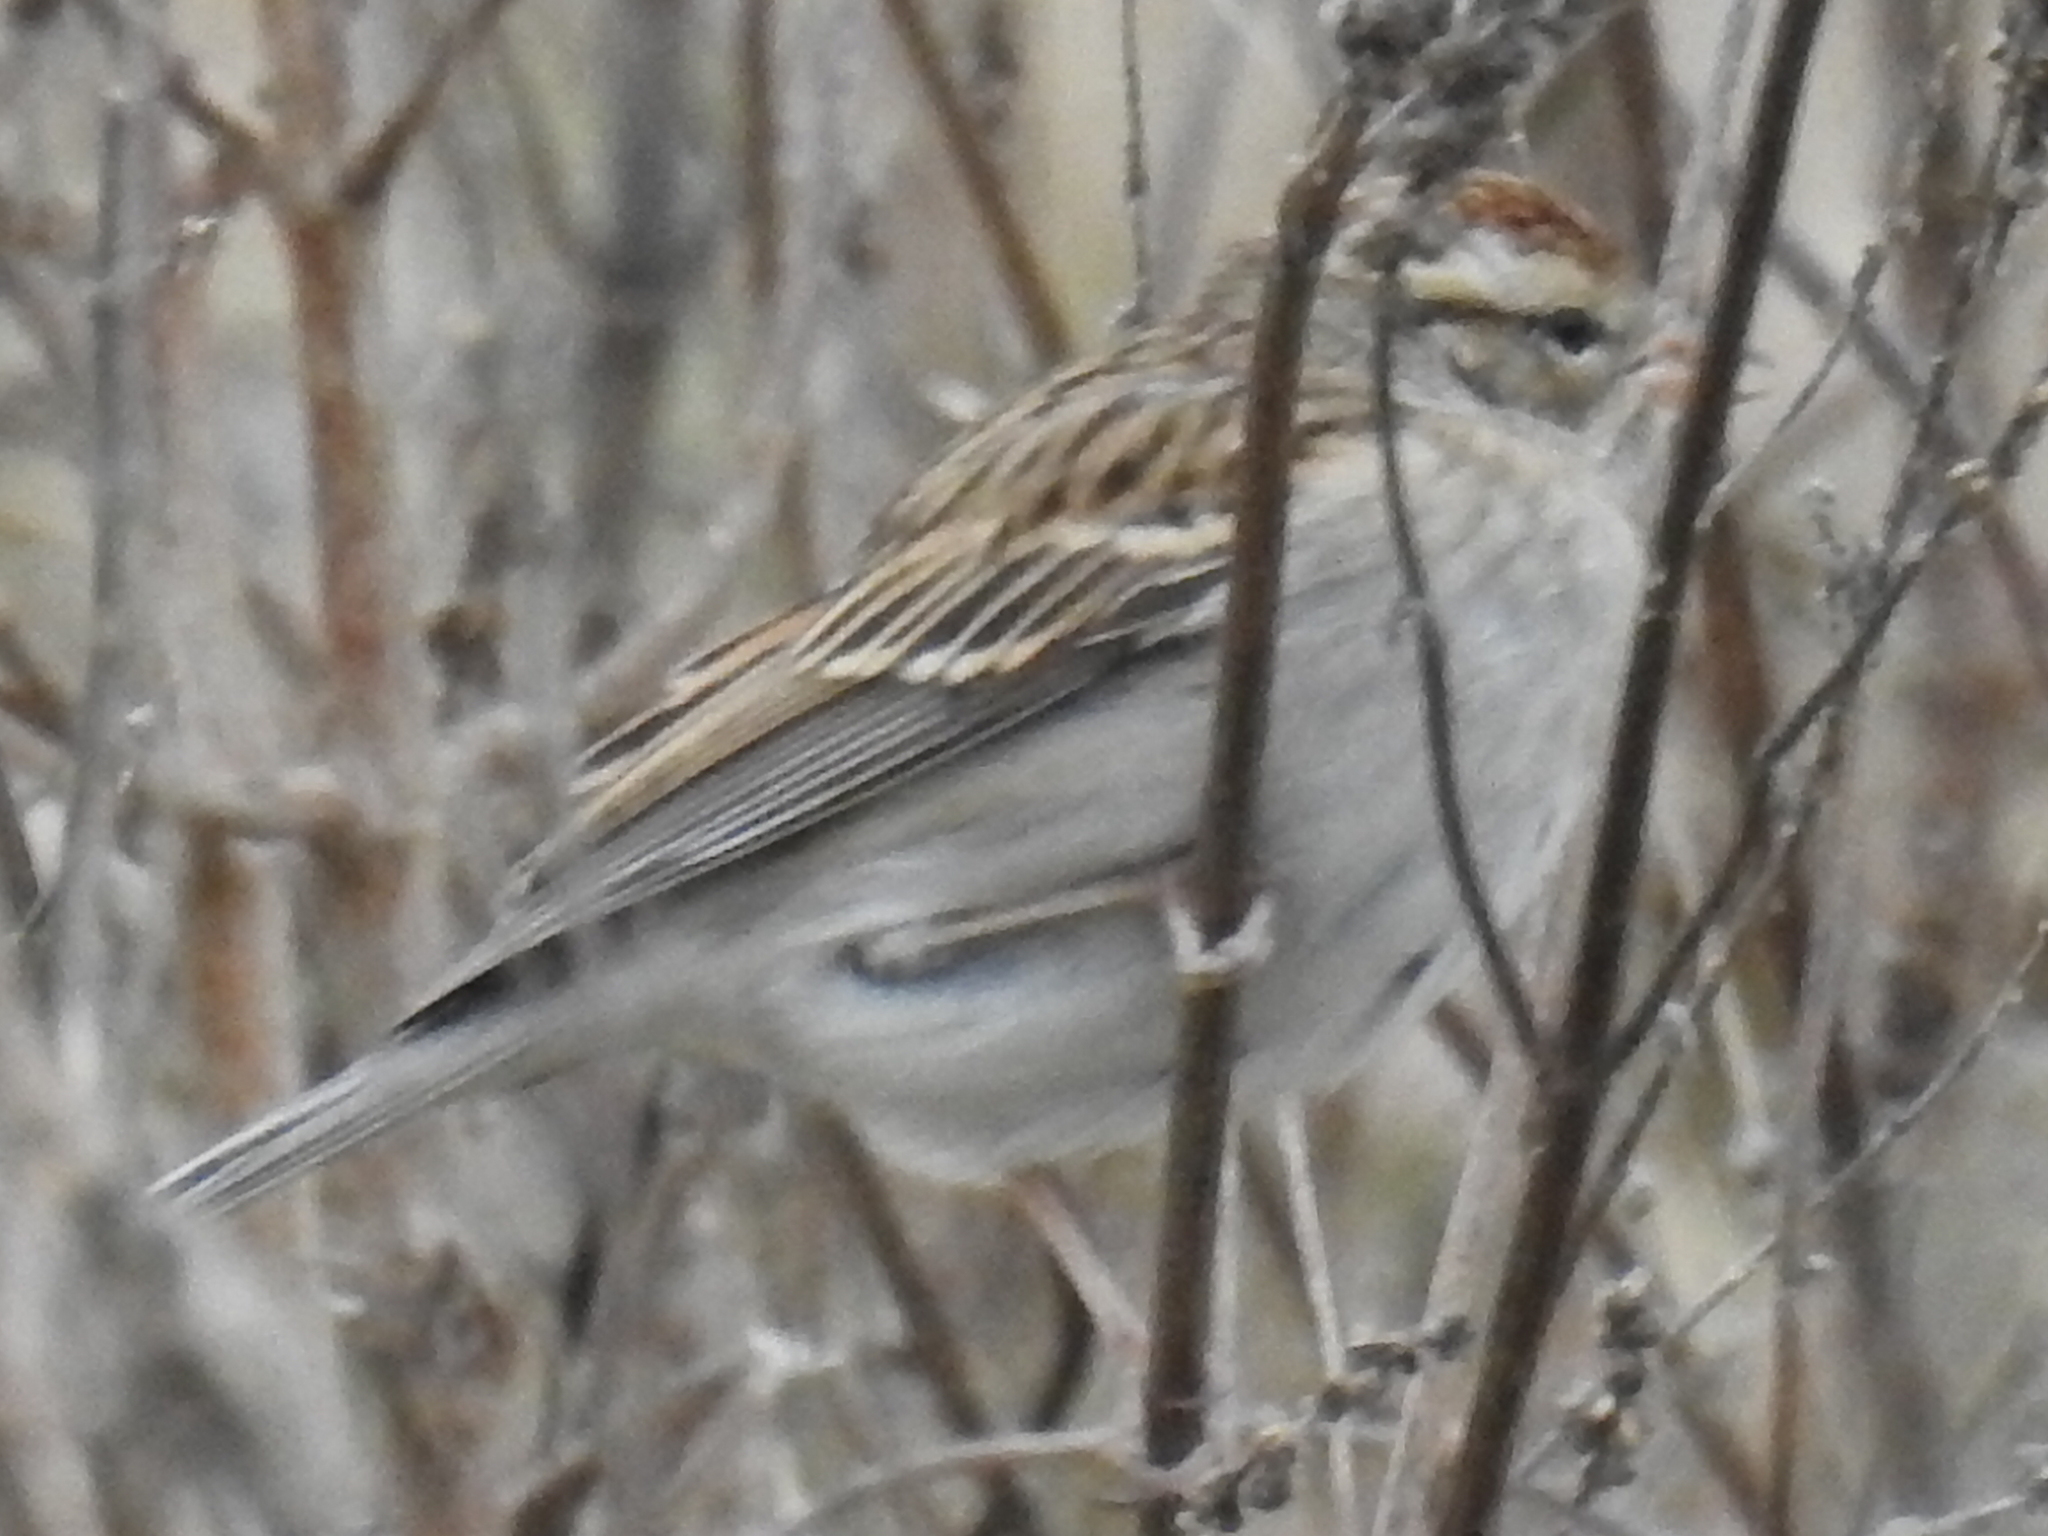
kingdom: Animalia
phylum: Chordata
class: Aves
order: Passeriformes
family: Passerellidae
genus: Spizella
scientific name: Spizella passerina
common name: Chipping sparrow
